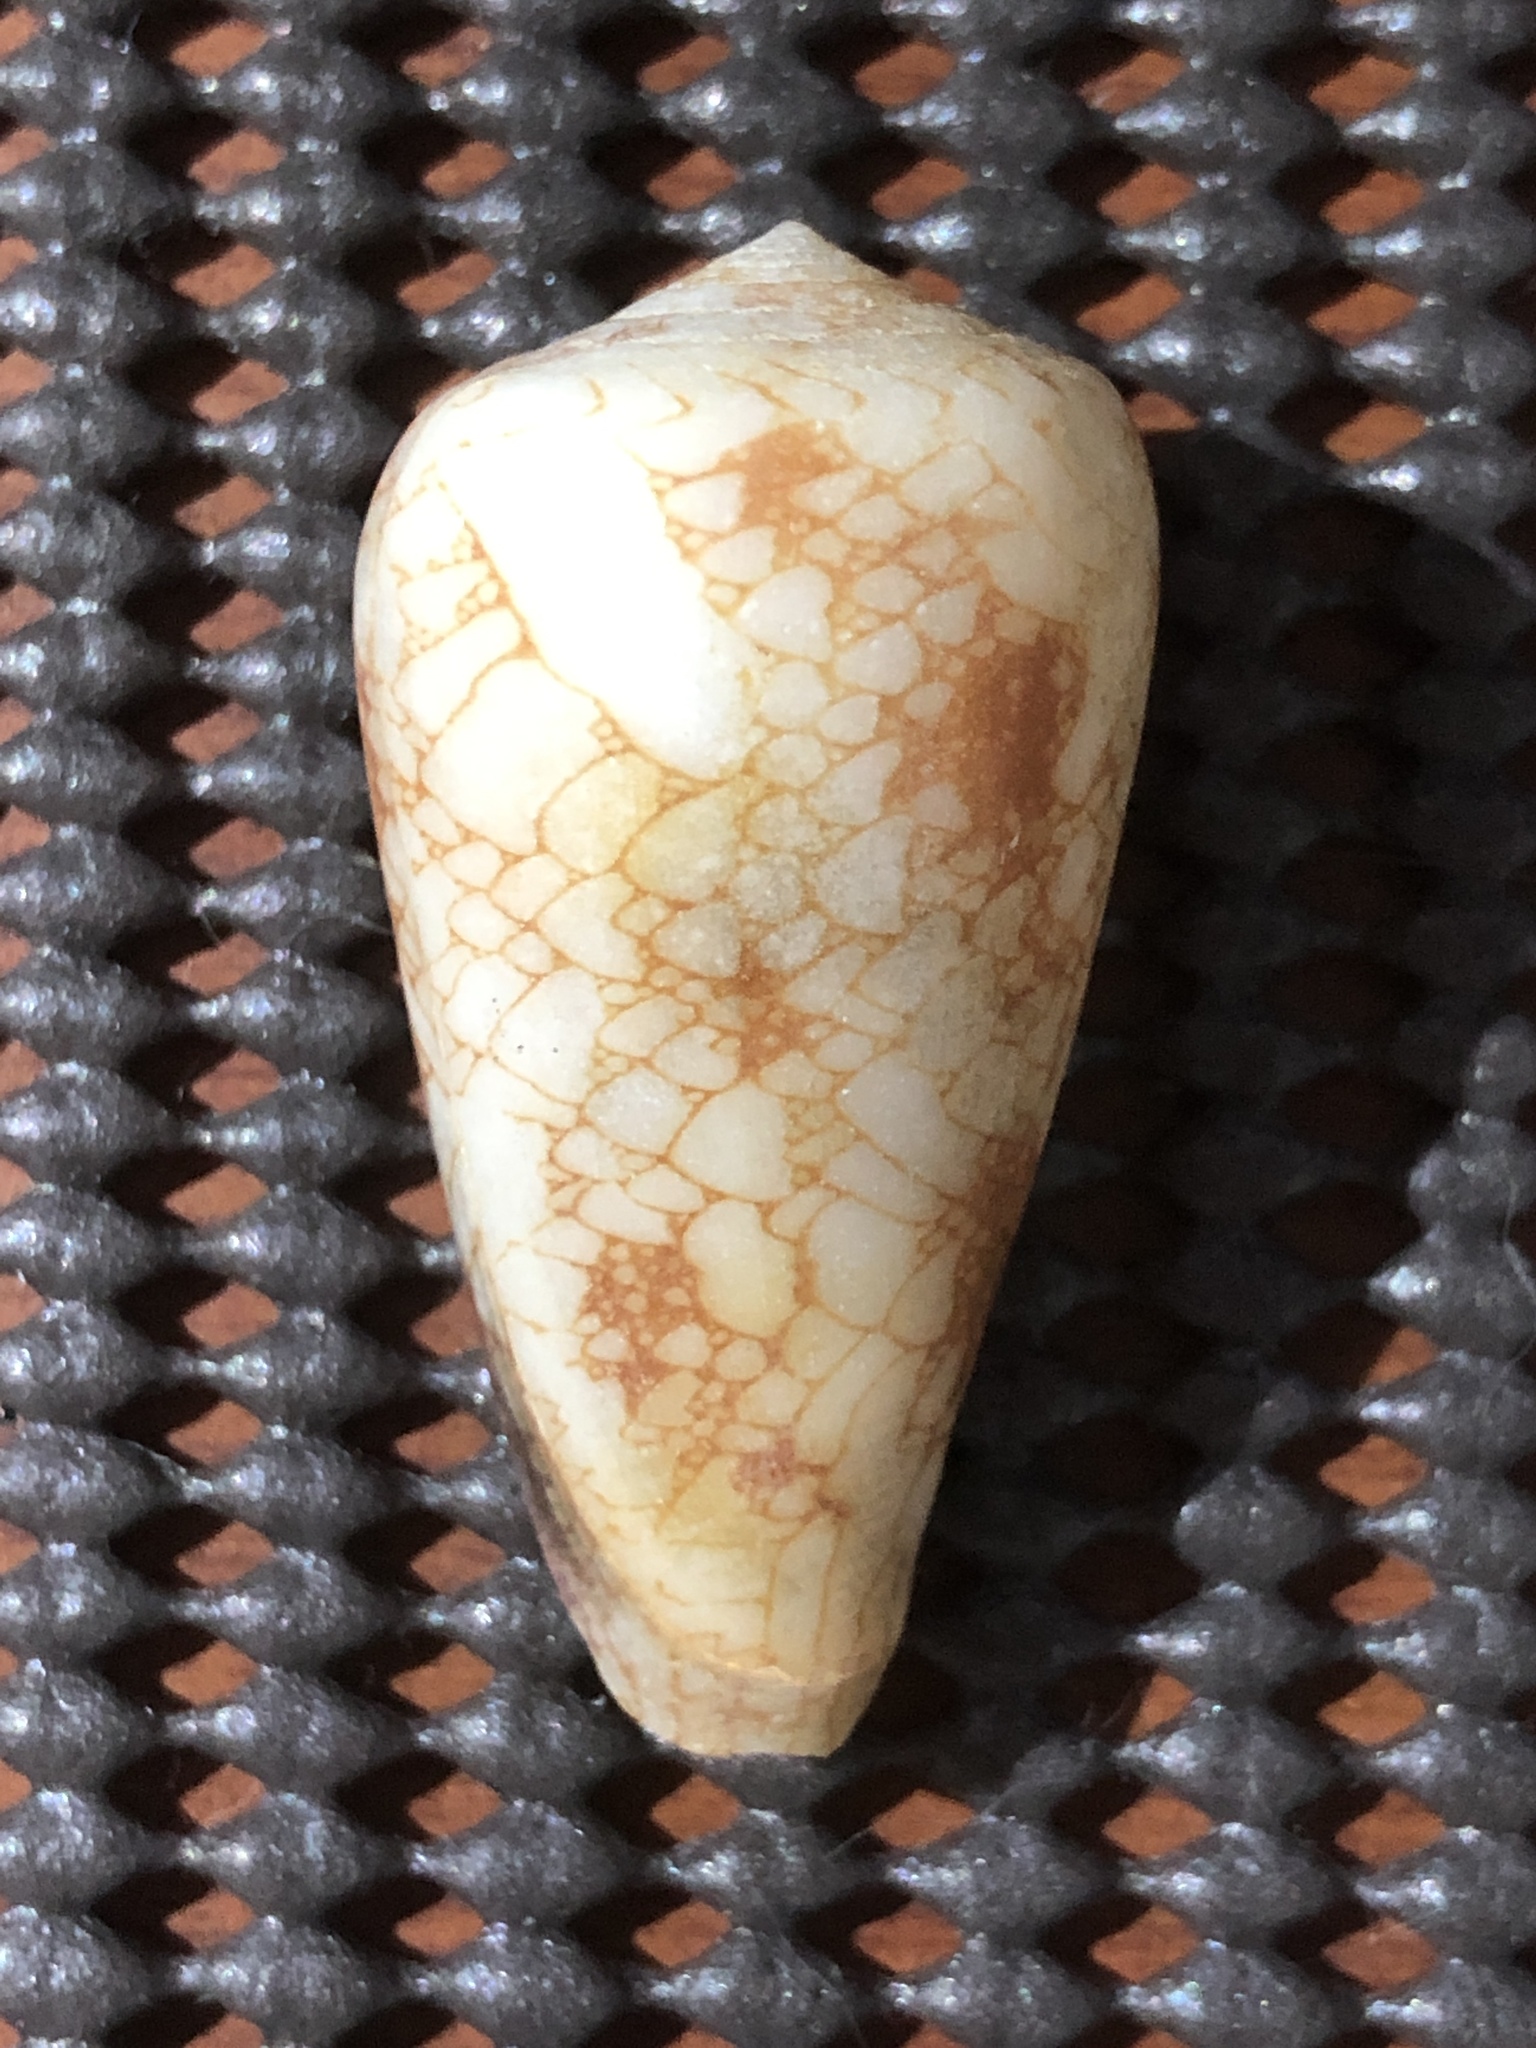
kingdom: Animalia
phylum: Mollusca
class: Gastropoda
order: Neogastropoda
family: Conidae
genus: Conus
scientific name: Conus omaria
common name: Omaria cone
